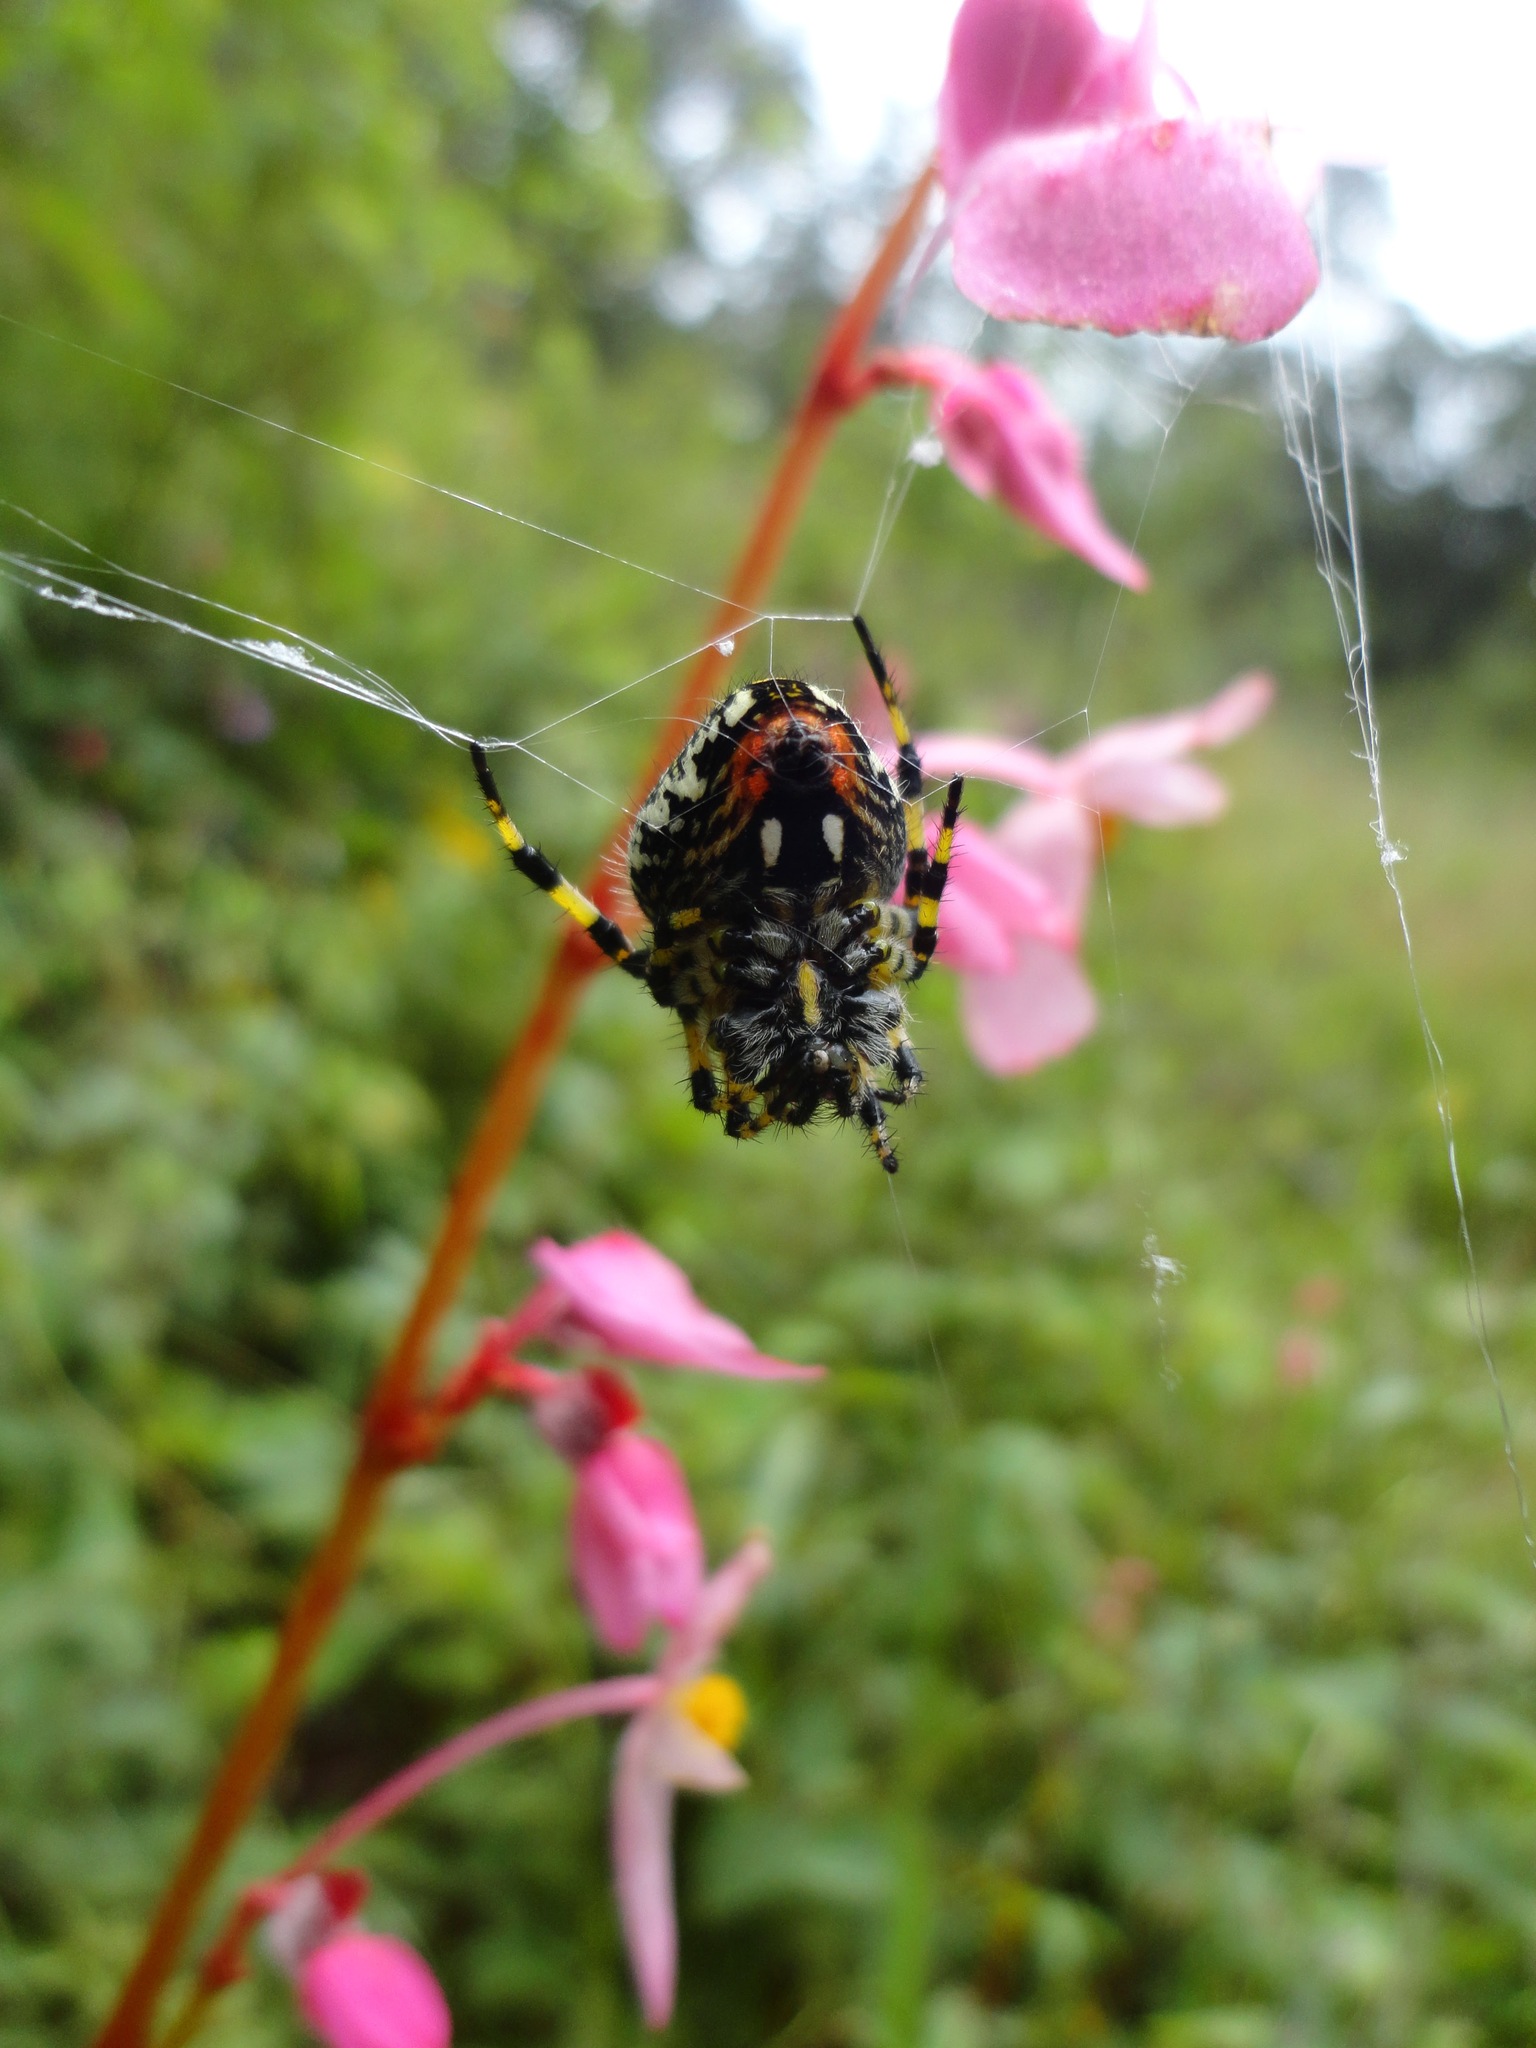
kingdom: Animalia
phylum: Arthropoda
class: Arachnida
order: Araneae
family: Araneidae
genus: Neoscona
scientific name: Neoscona orizabensis
